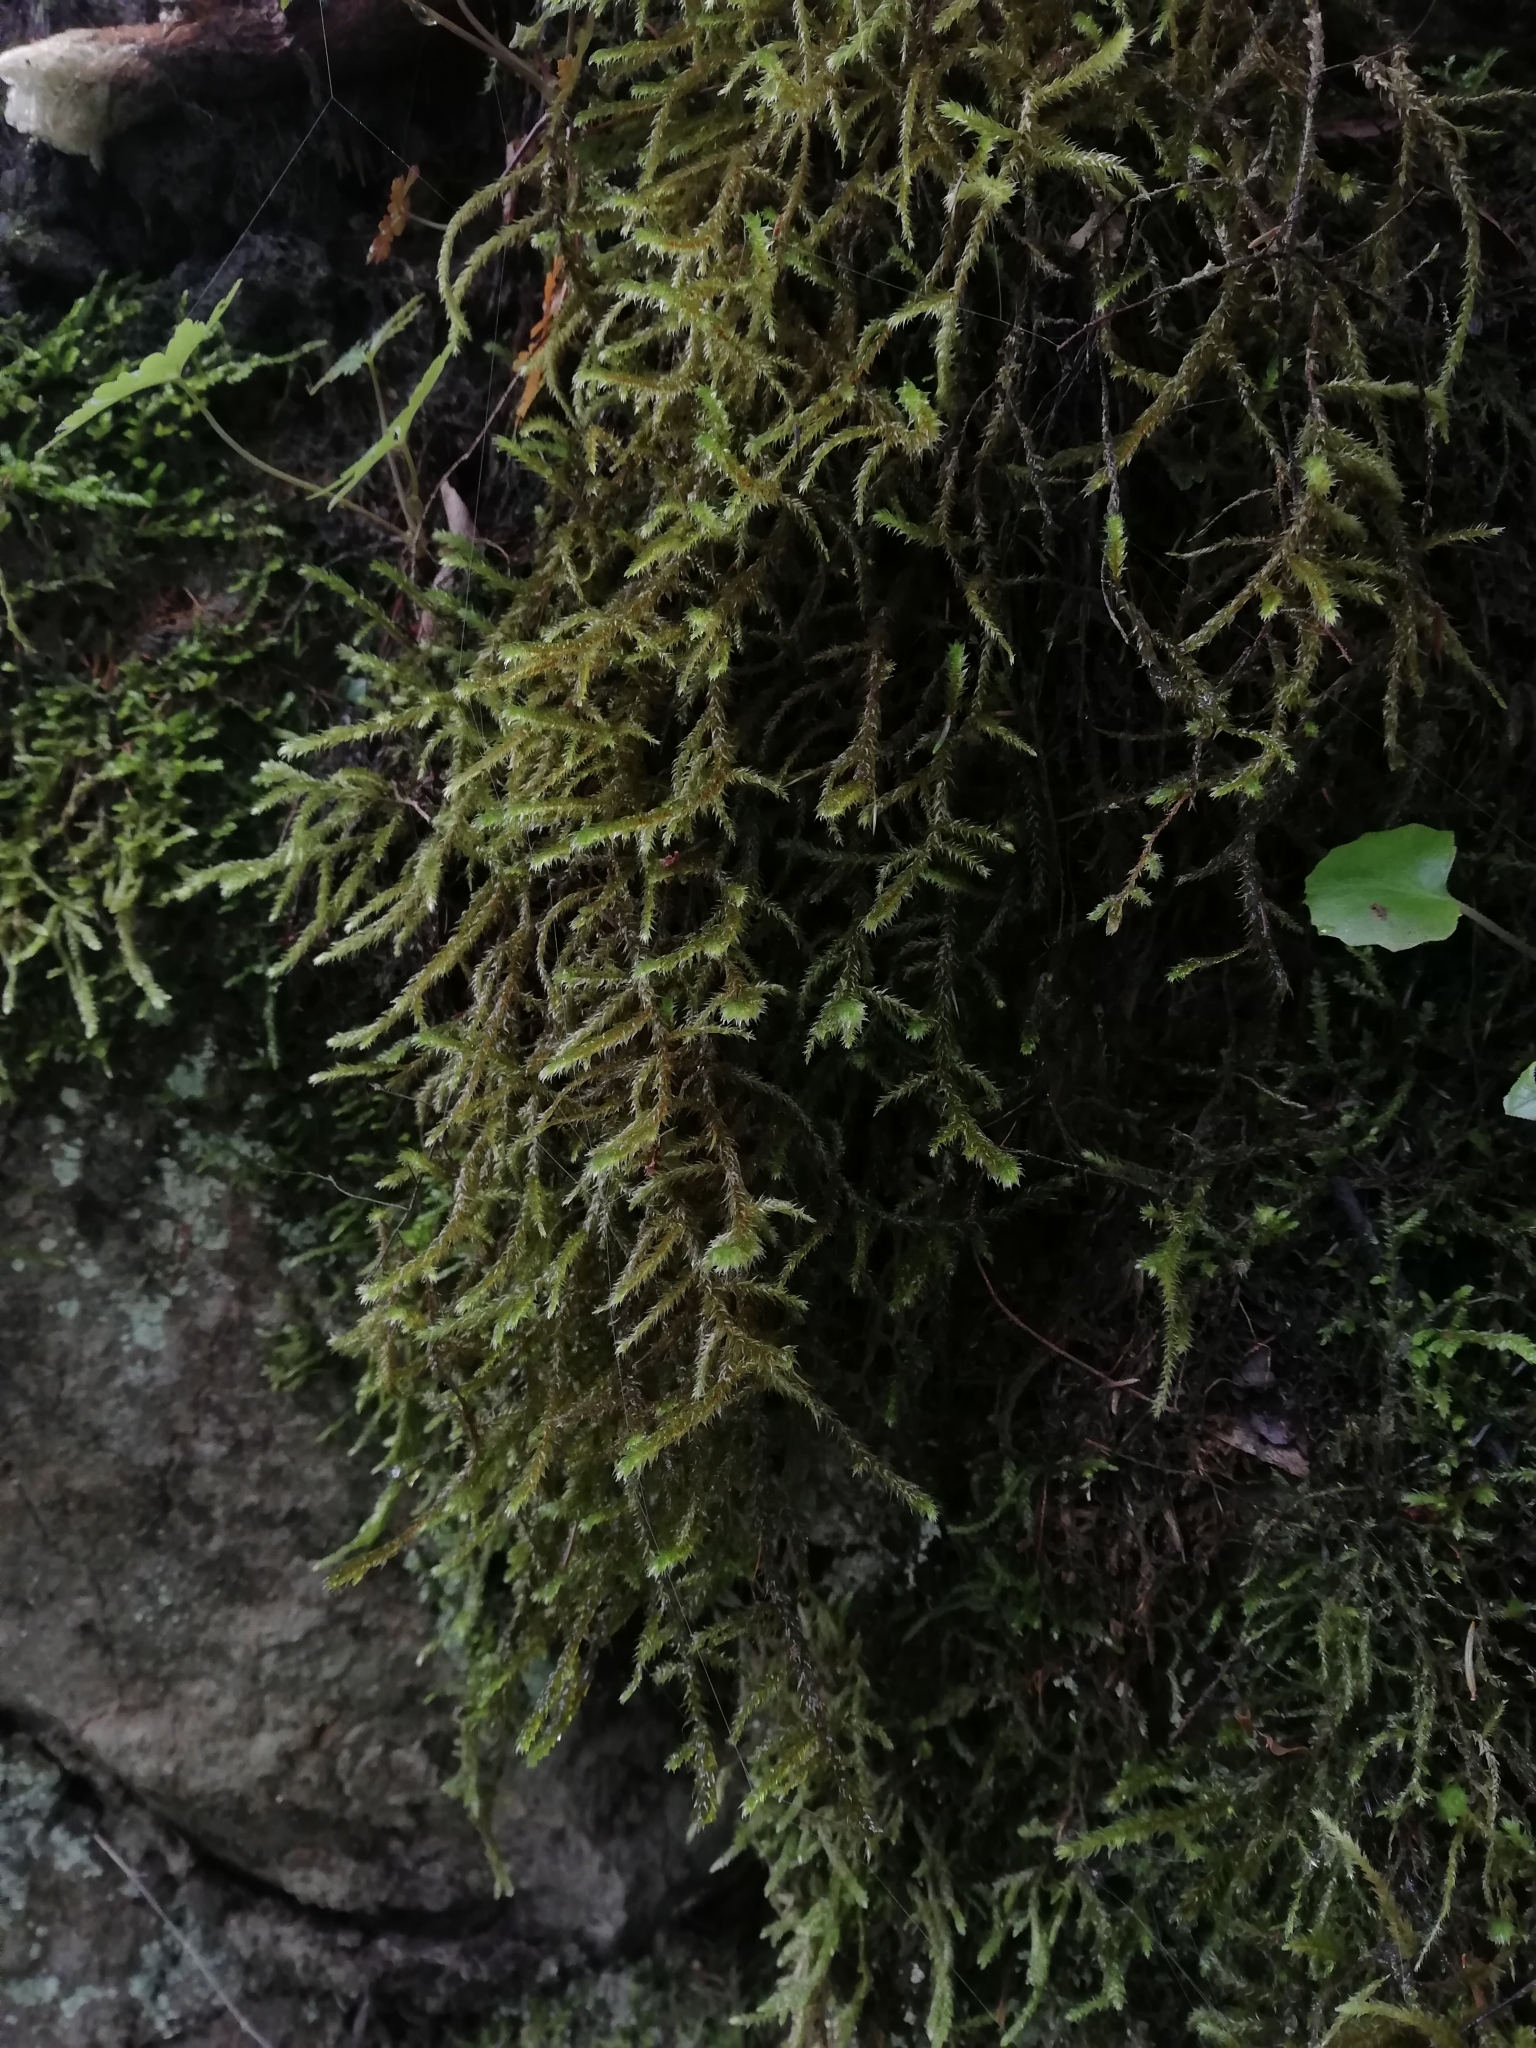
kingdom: Plantae
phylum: Bryophyta
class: Bryopsida
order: Hypnales
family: Antitrichiaceae
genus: Antitrichia
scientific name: Antitrichia curtipendula
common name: Pendulous wing-moss
